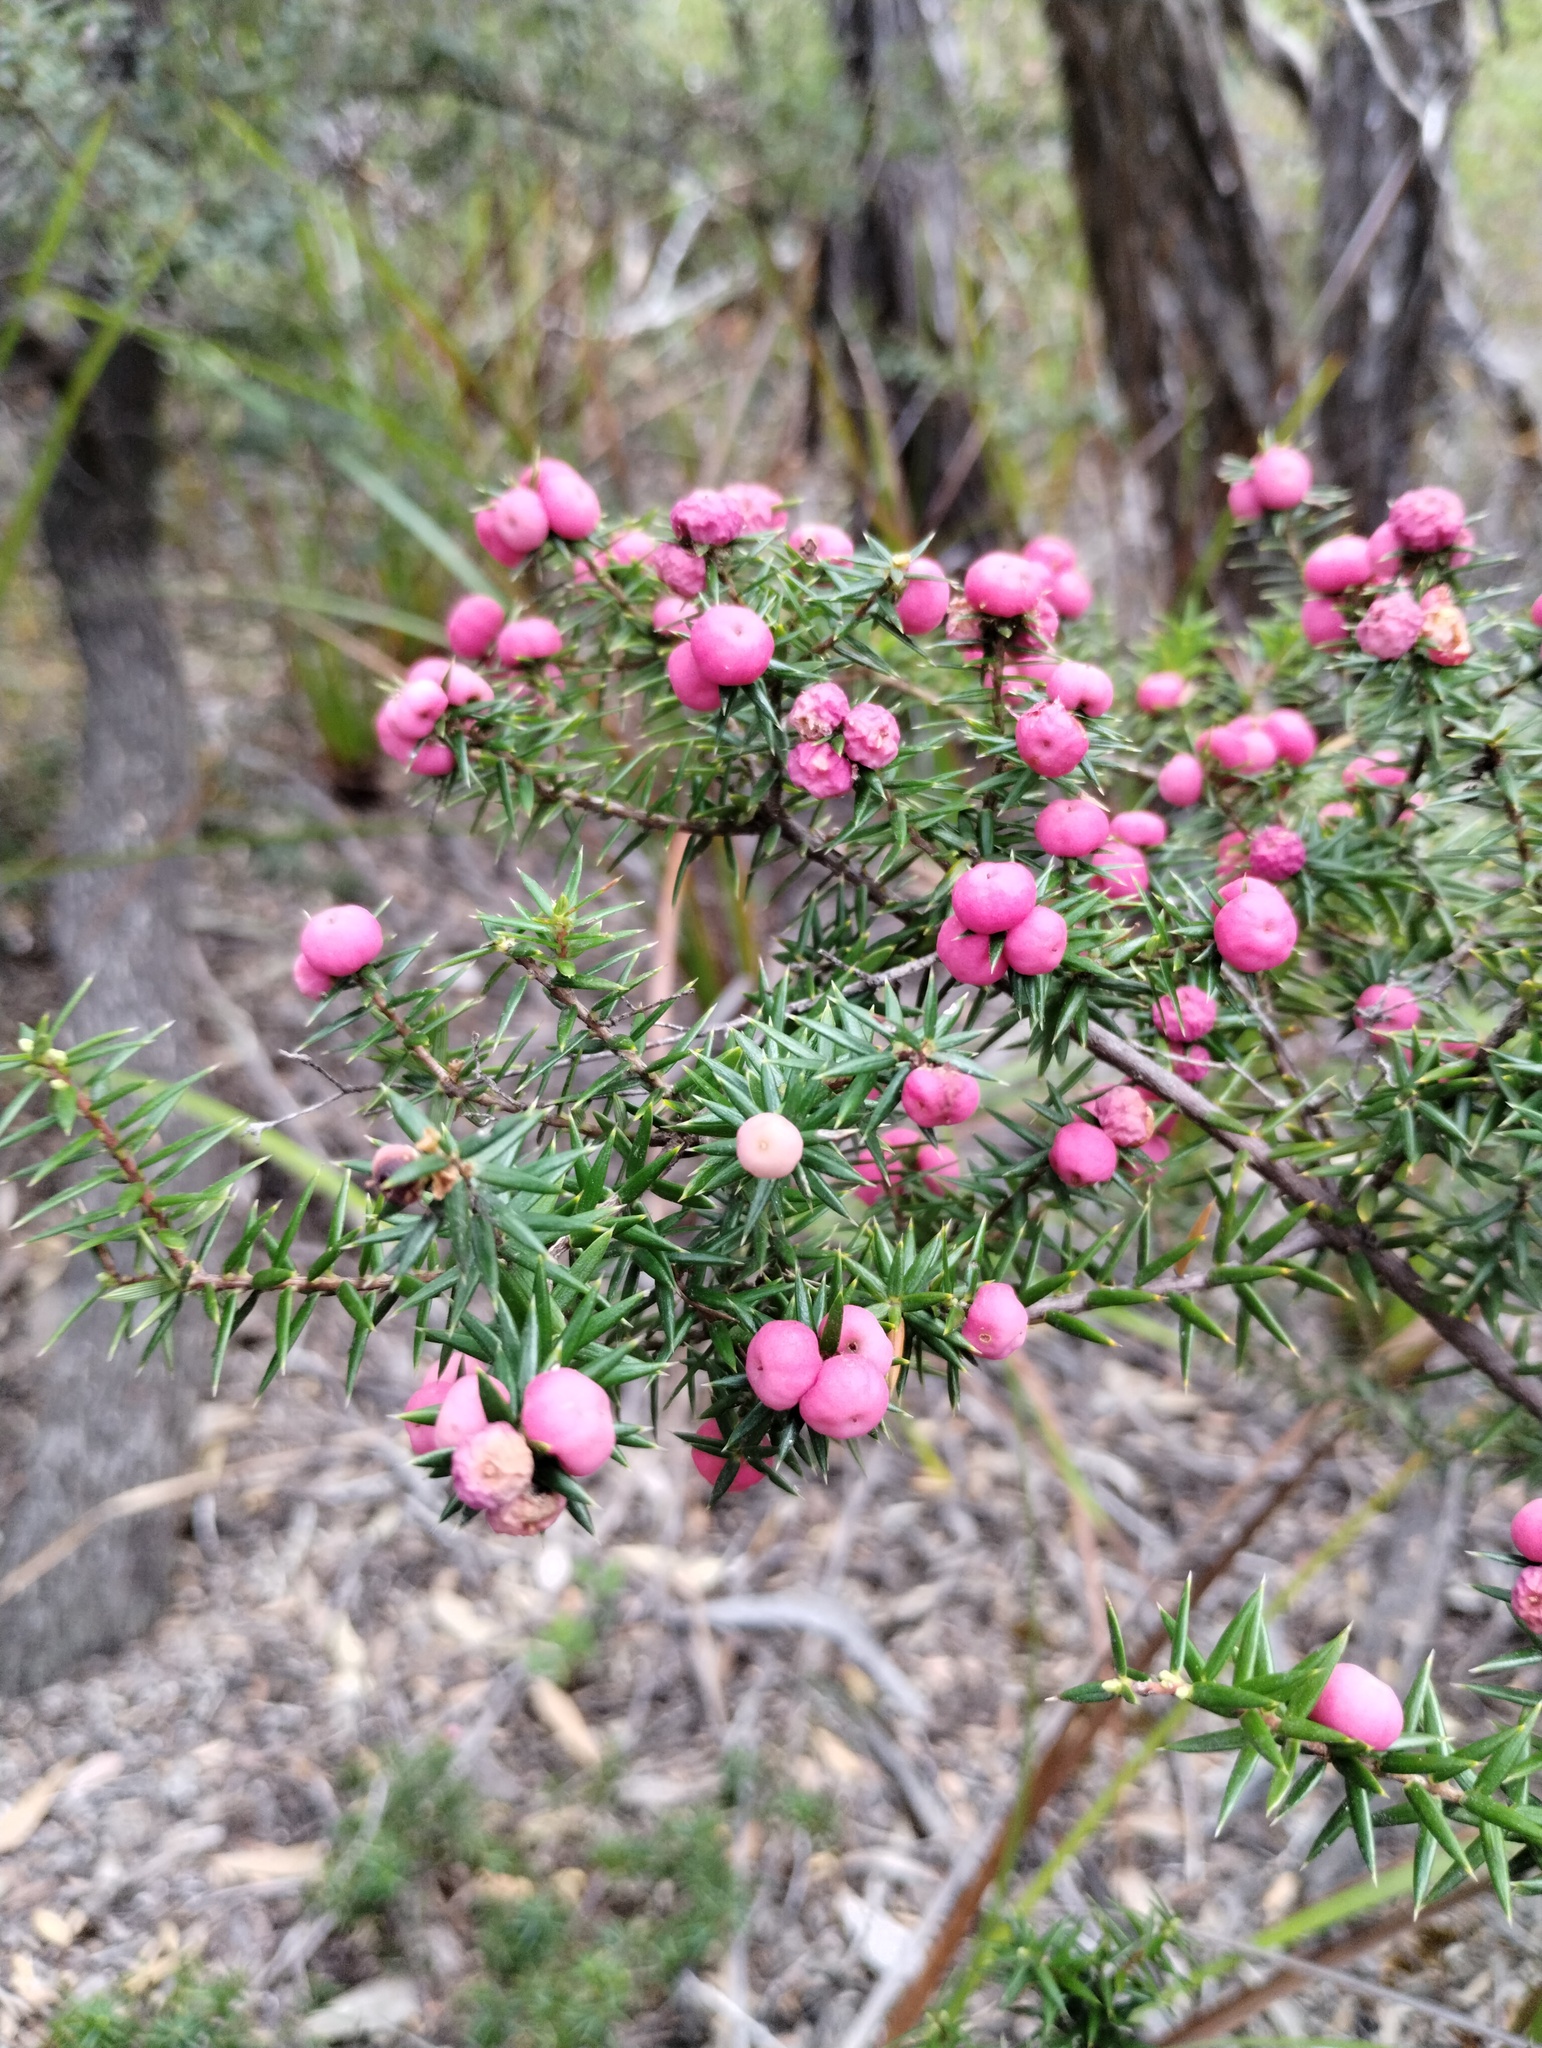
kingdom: Plantae
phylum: Tracheophyta
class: Magnoliopsida
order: Ericales
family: Ericaceae
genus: Leptecophylla
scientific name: Leptecophylla oxycedrus
